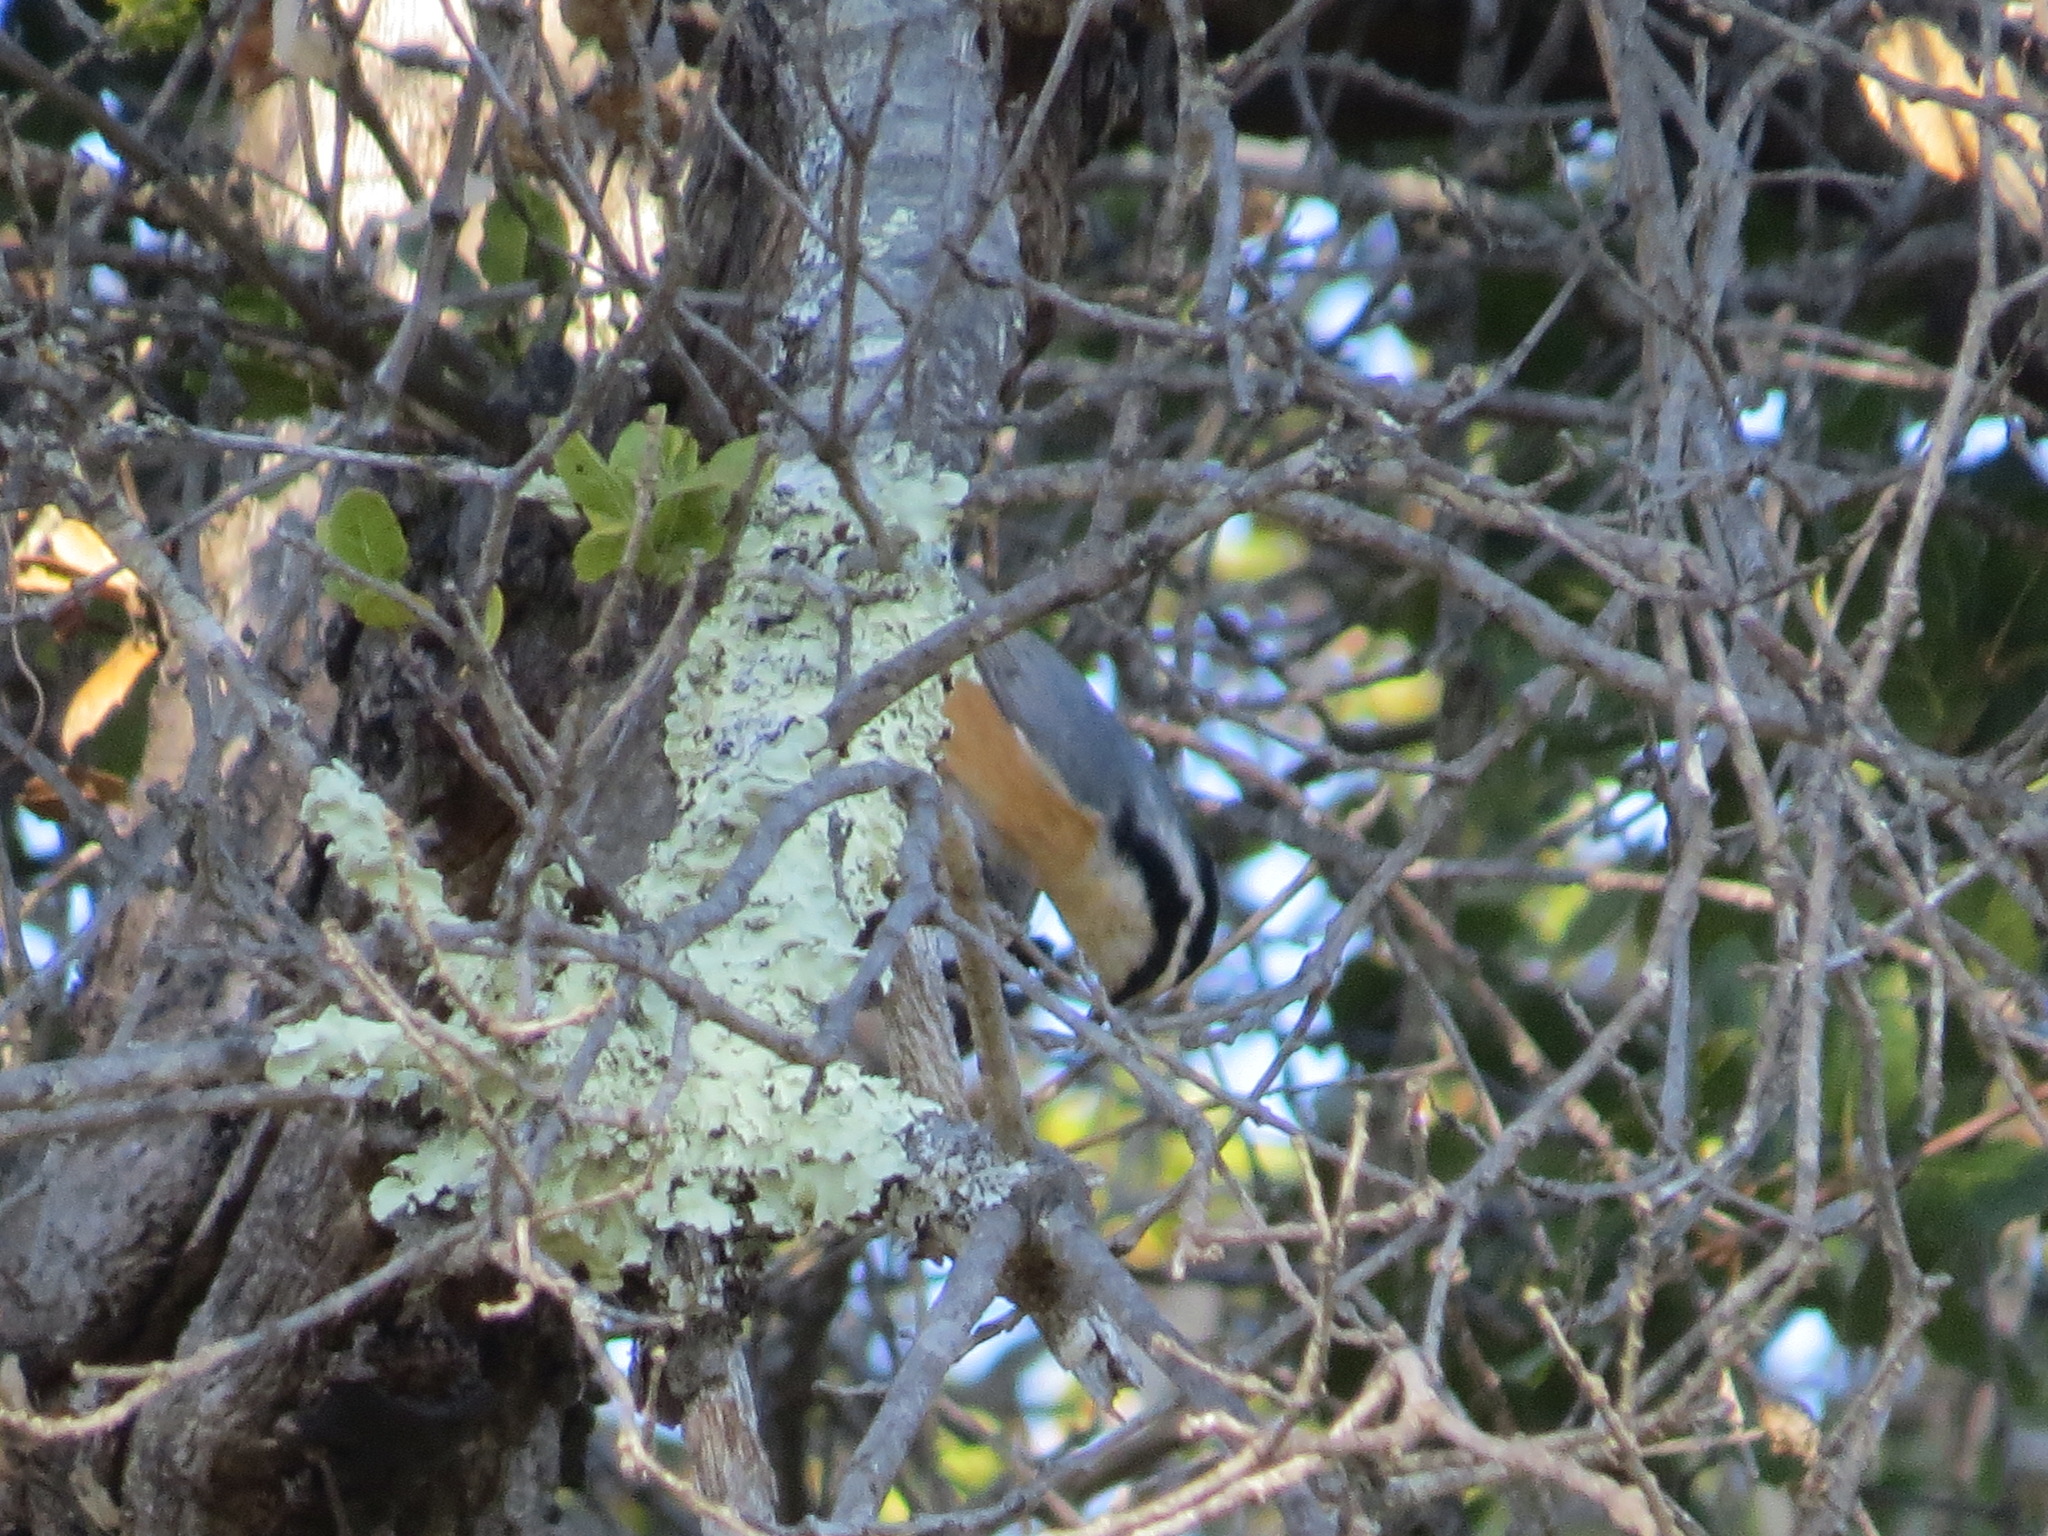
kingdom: Animalia
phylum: Chordata
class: Aves
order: Passeriformes
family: Sittidae
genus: Sitta
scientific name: Sitta canadensis
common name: Red-breasted nuthatch
